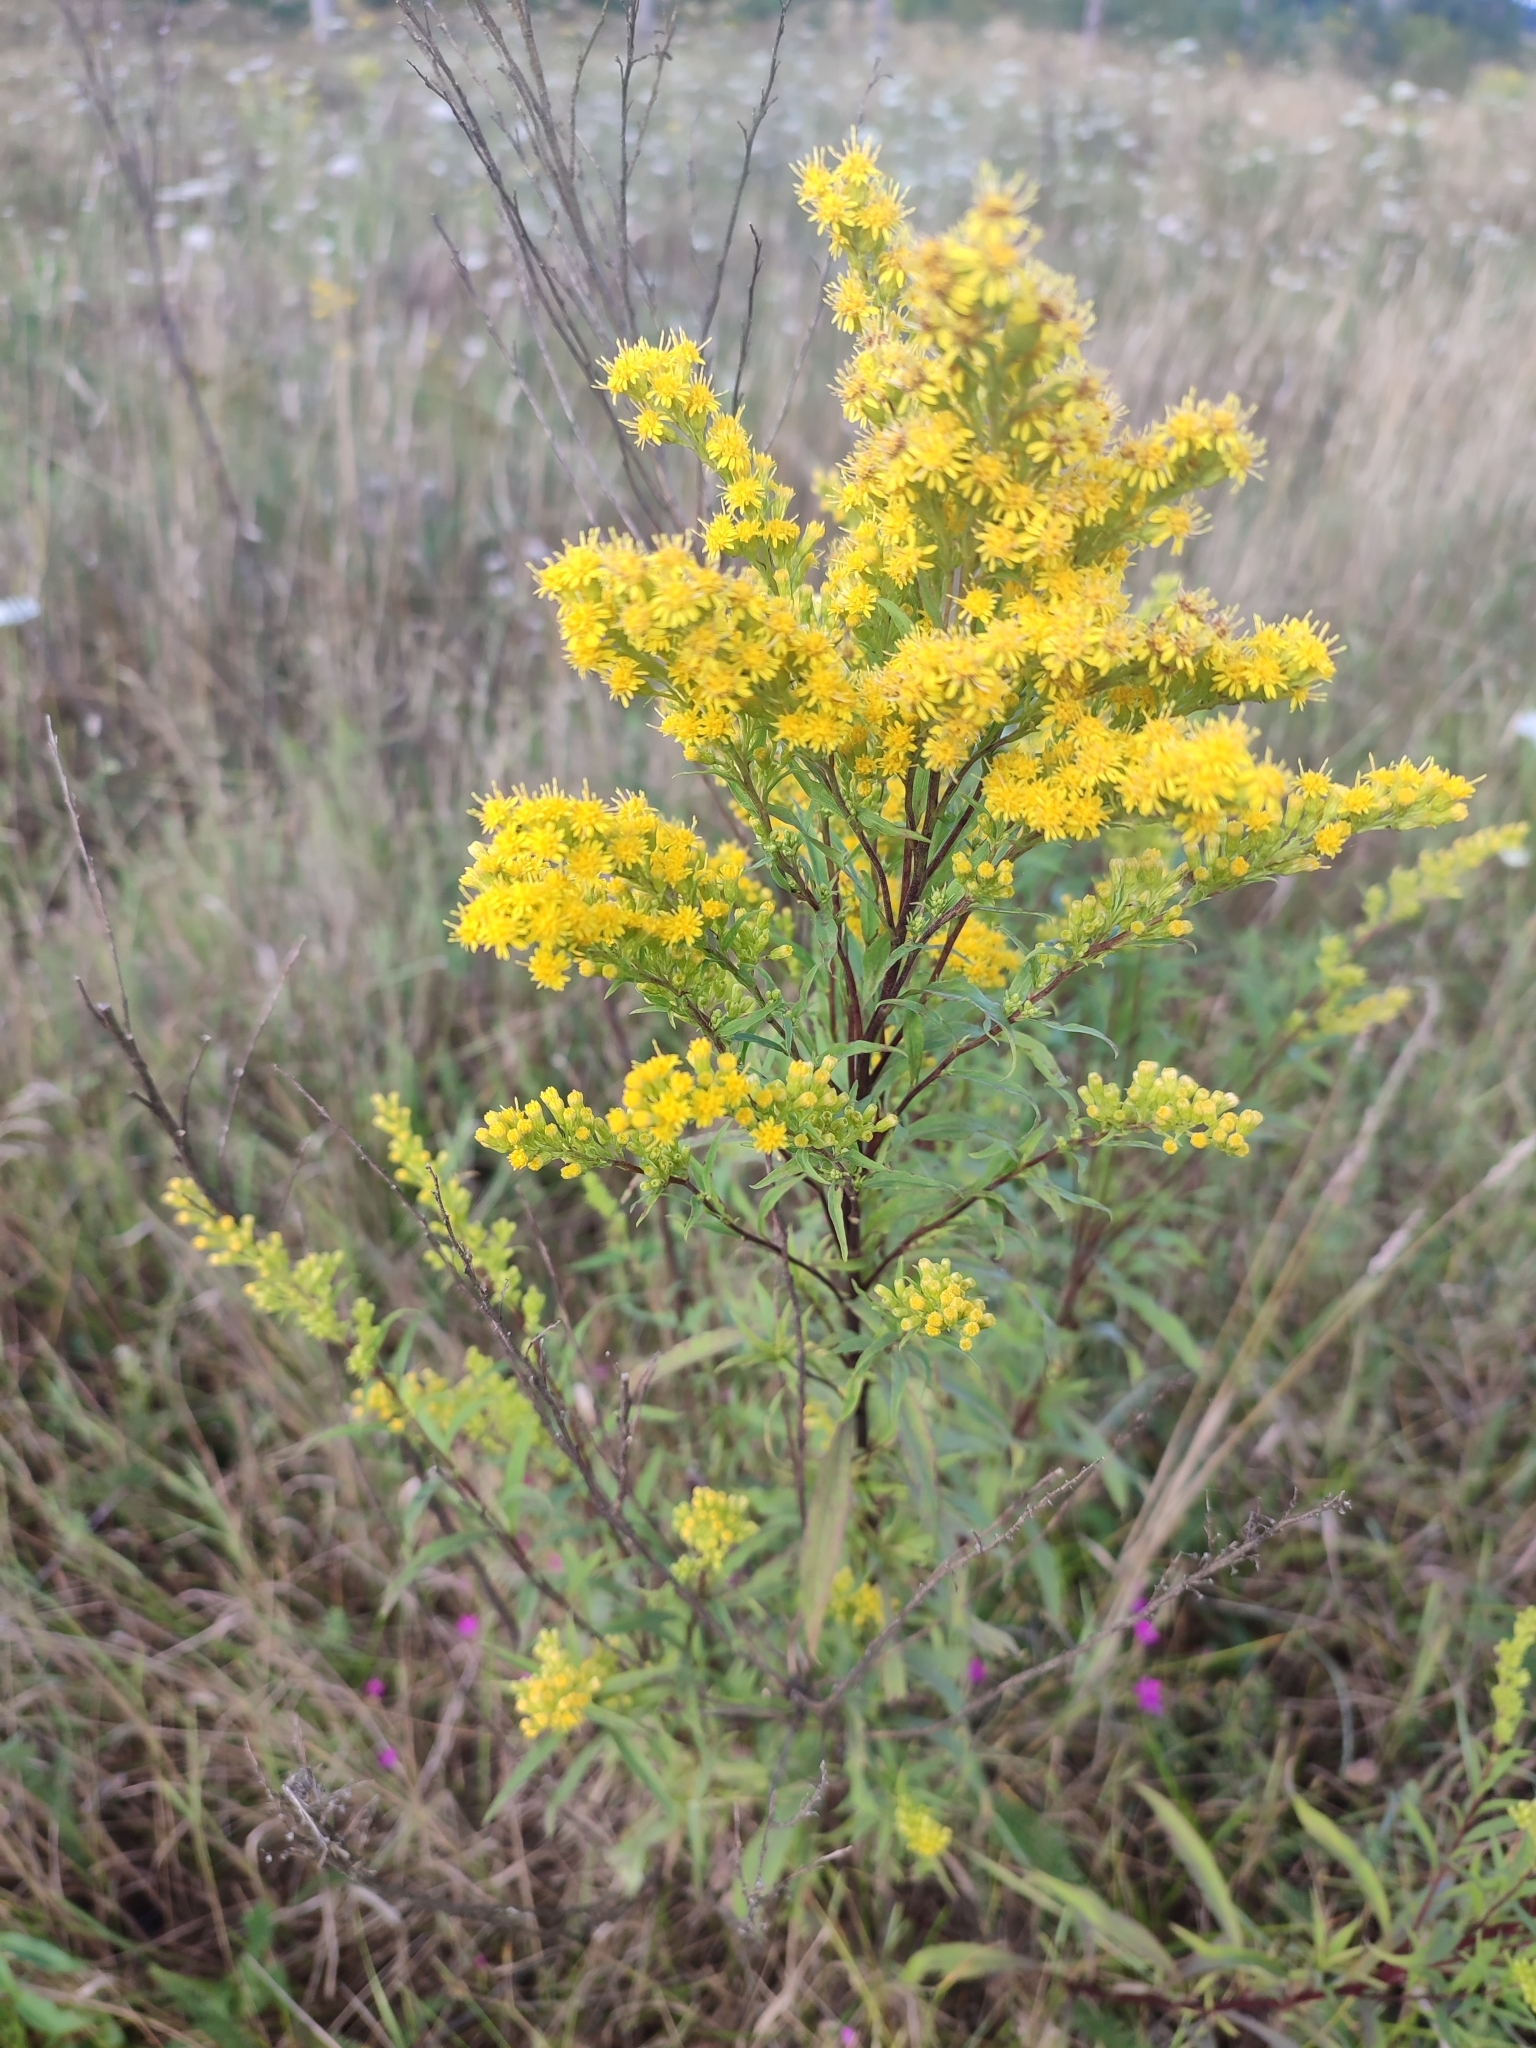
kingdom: Plantae
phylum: Tracheophyta
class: Magnoliopsida
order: Asterales
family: Asteraceae
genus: Solidago
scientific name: Solidago virgaurea
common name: Goldenrod
